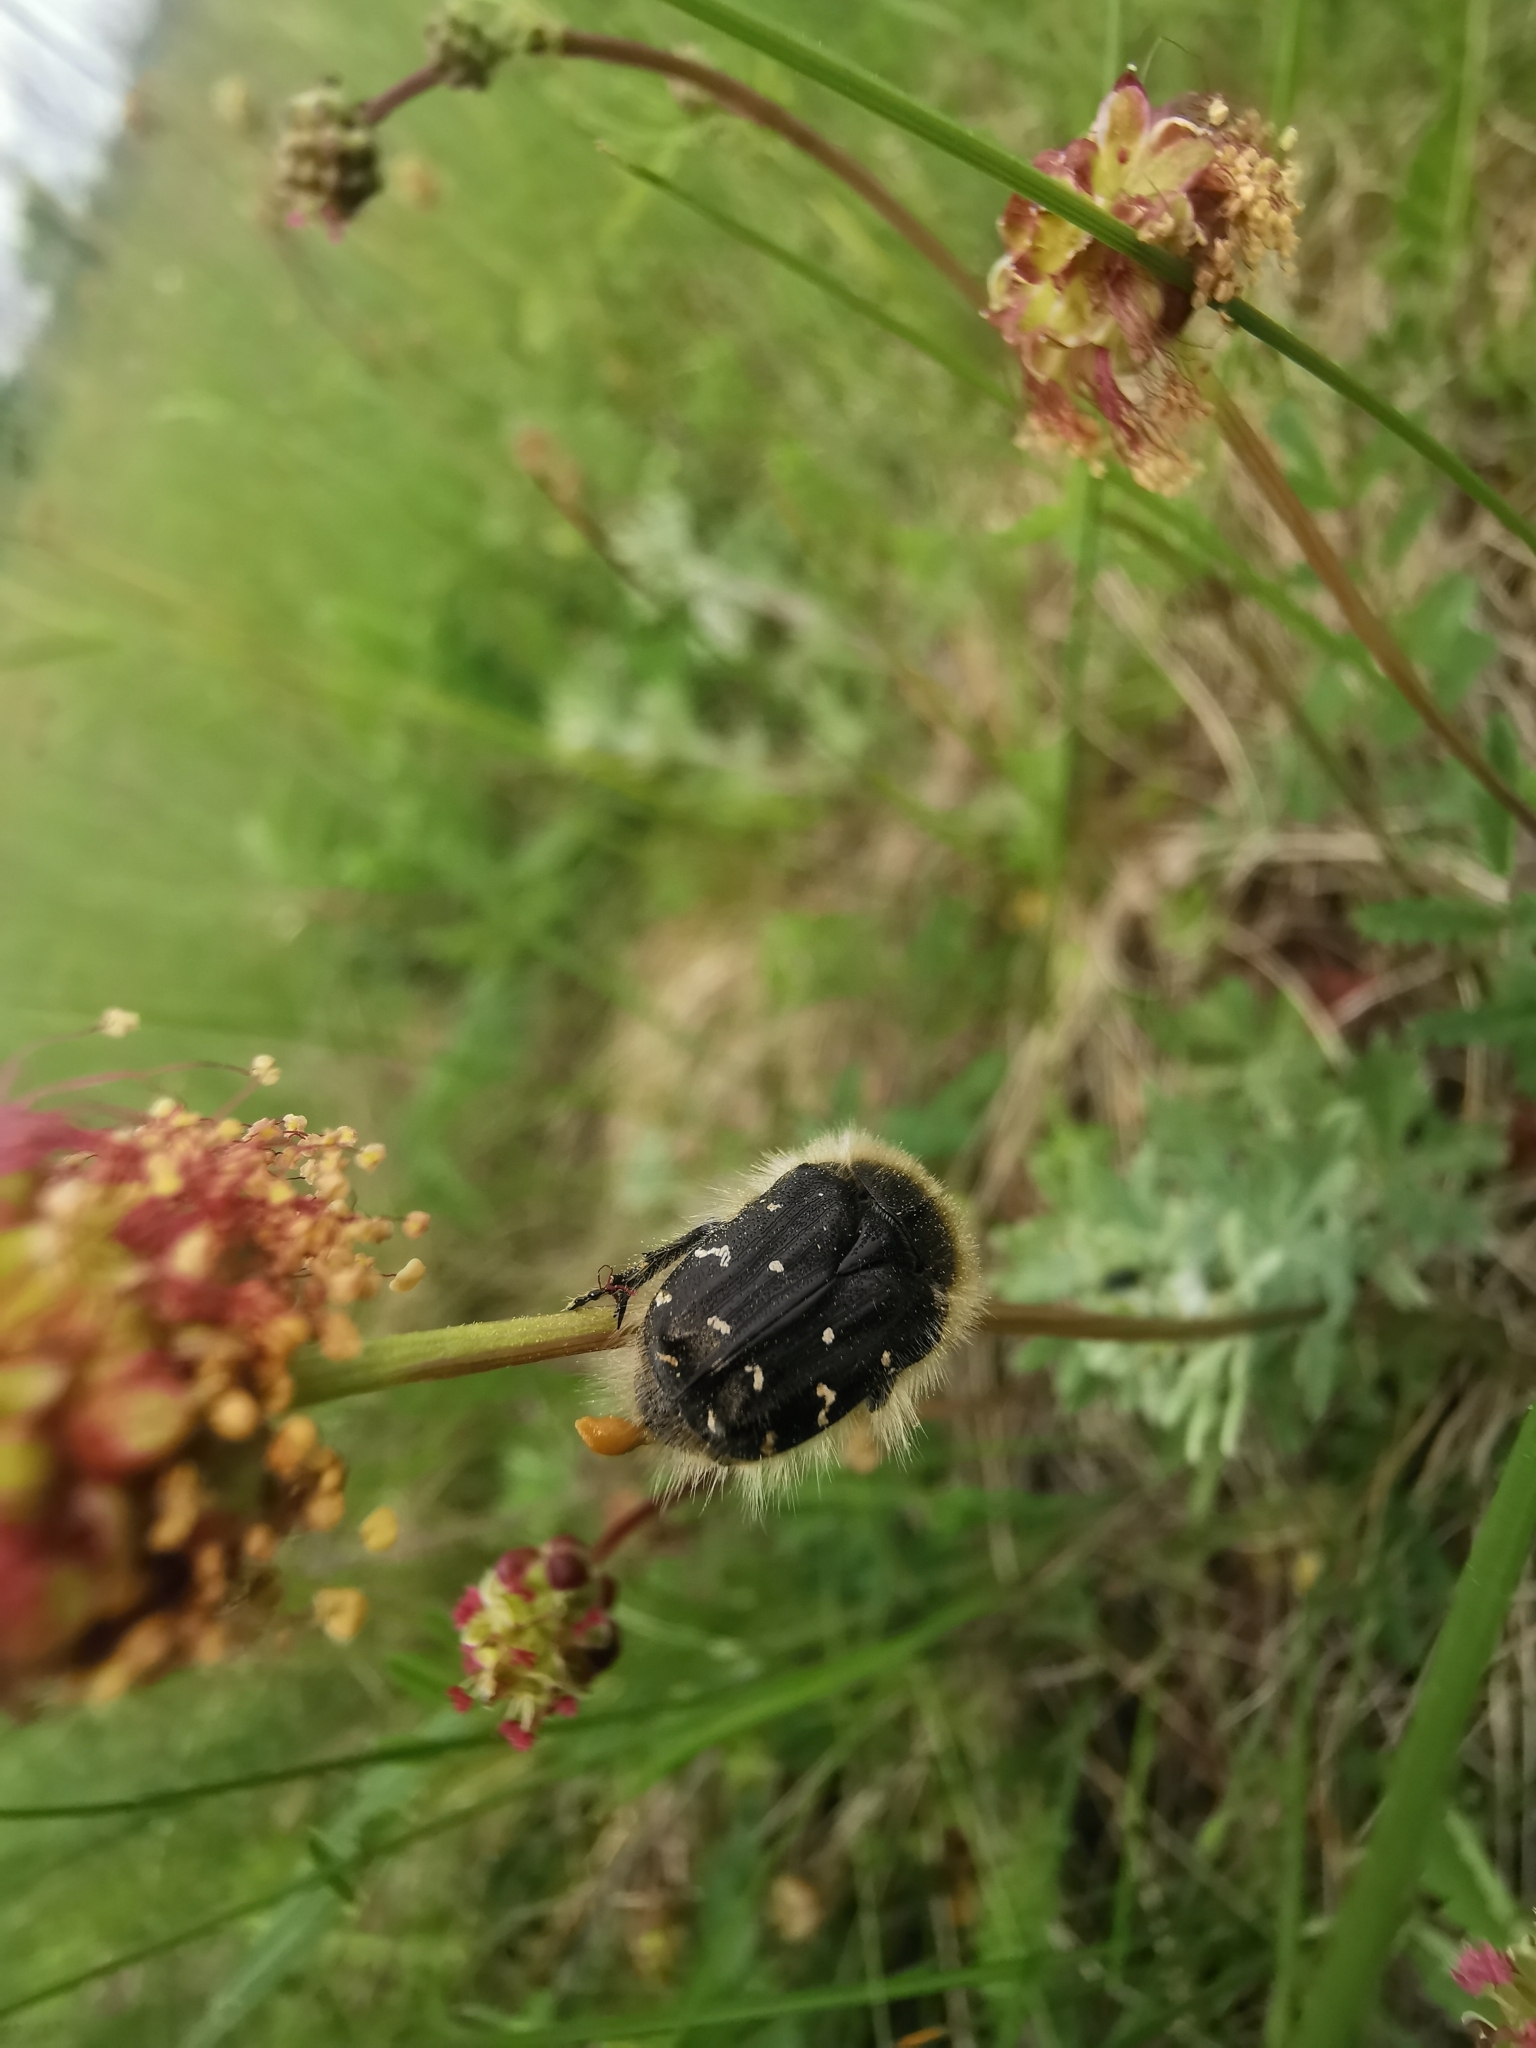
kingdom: Animalia
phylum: Arthropoda
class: Insecta
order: Coleoptera
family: Scarabaeidae
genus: Tropinota
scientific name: Tropinota hirta
